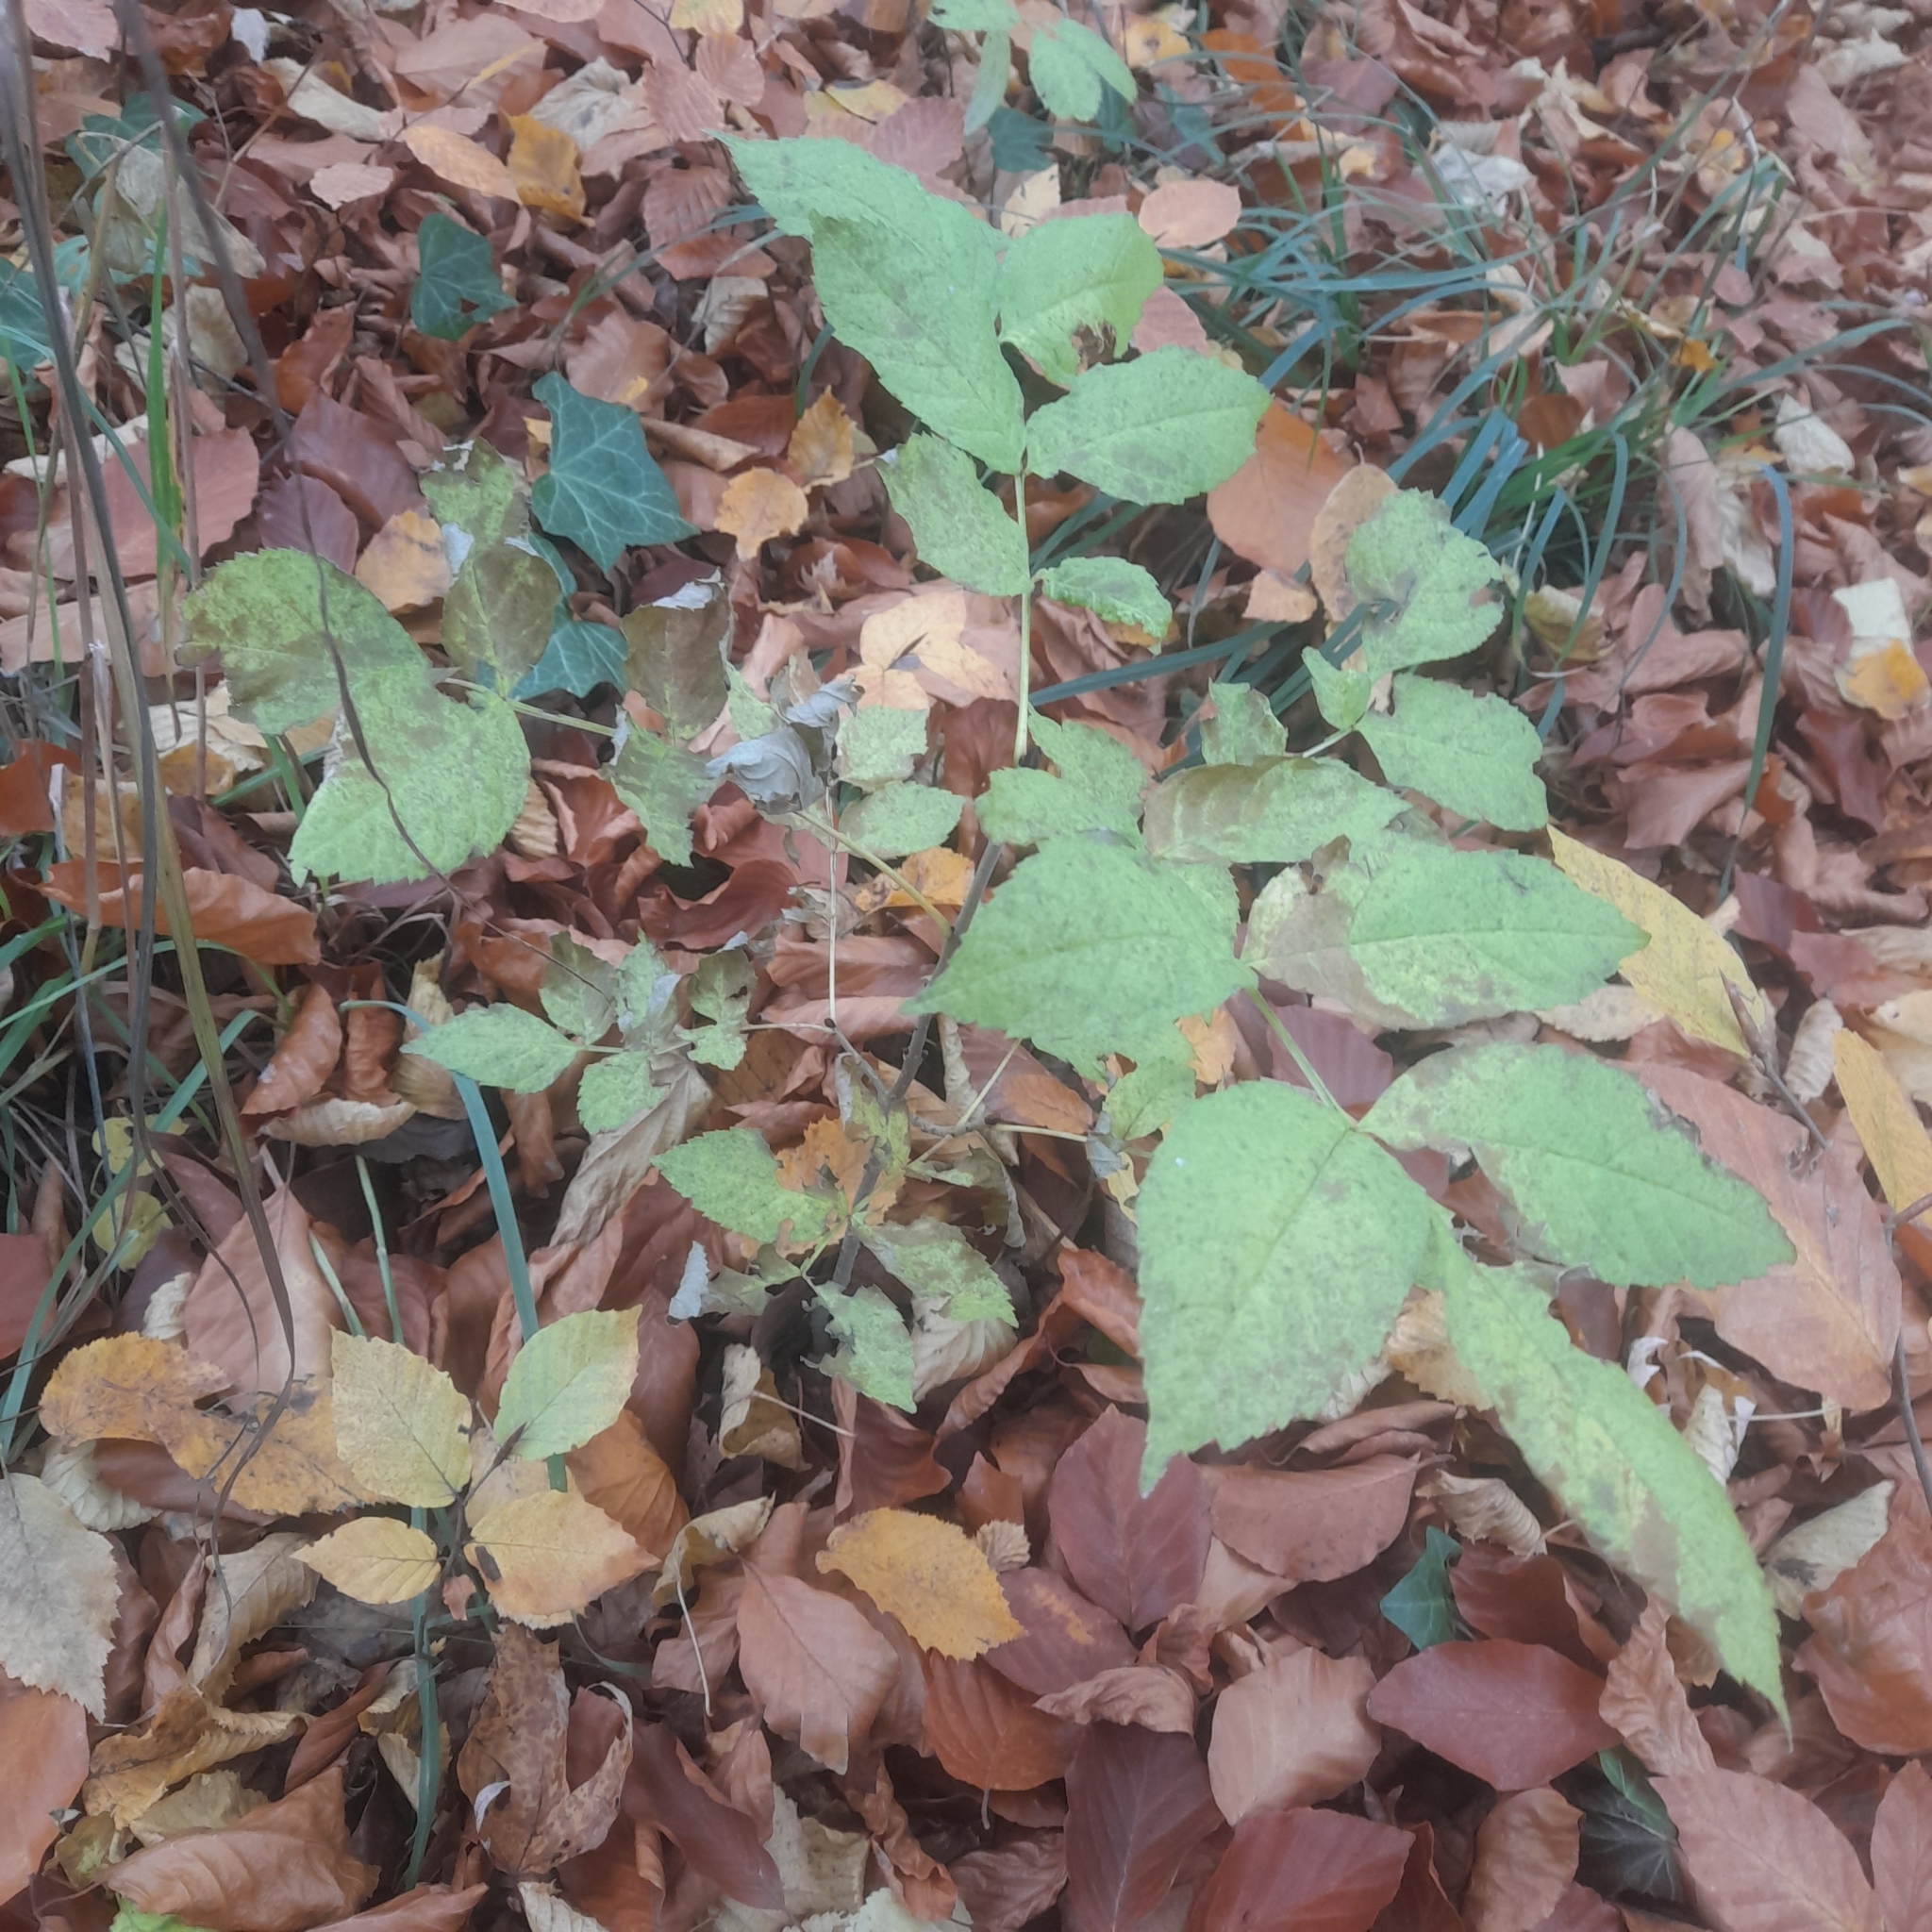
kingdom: Plantae
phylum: Tracheophyta
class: Magnoliopsida
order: Lamiales
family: Oleaceae
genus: Fraxinus
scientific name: Fraxinus excelsior
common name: European ash
